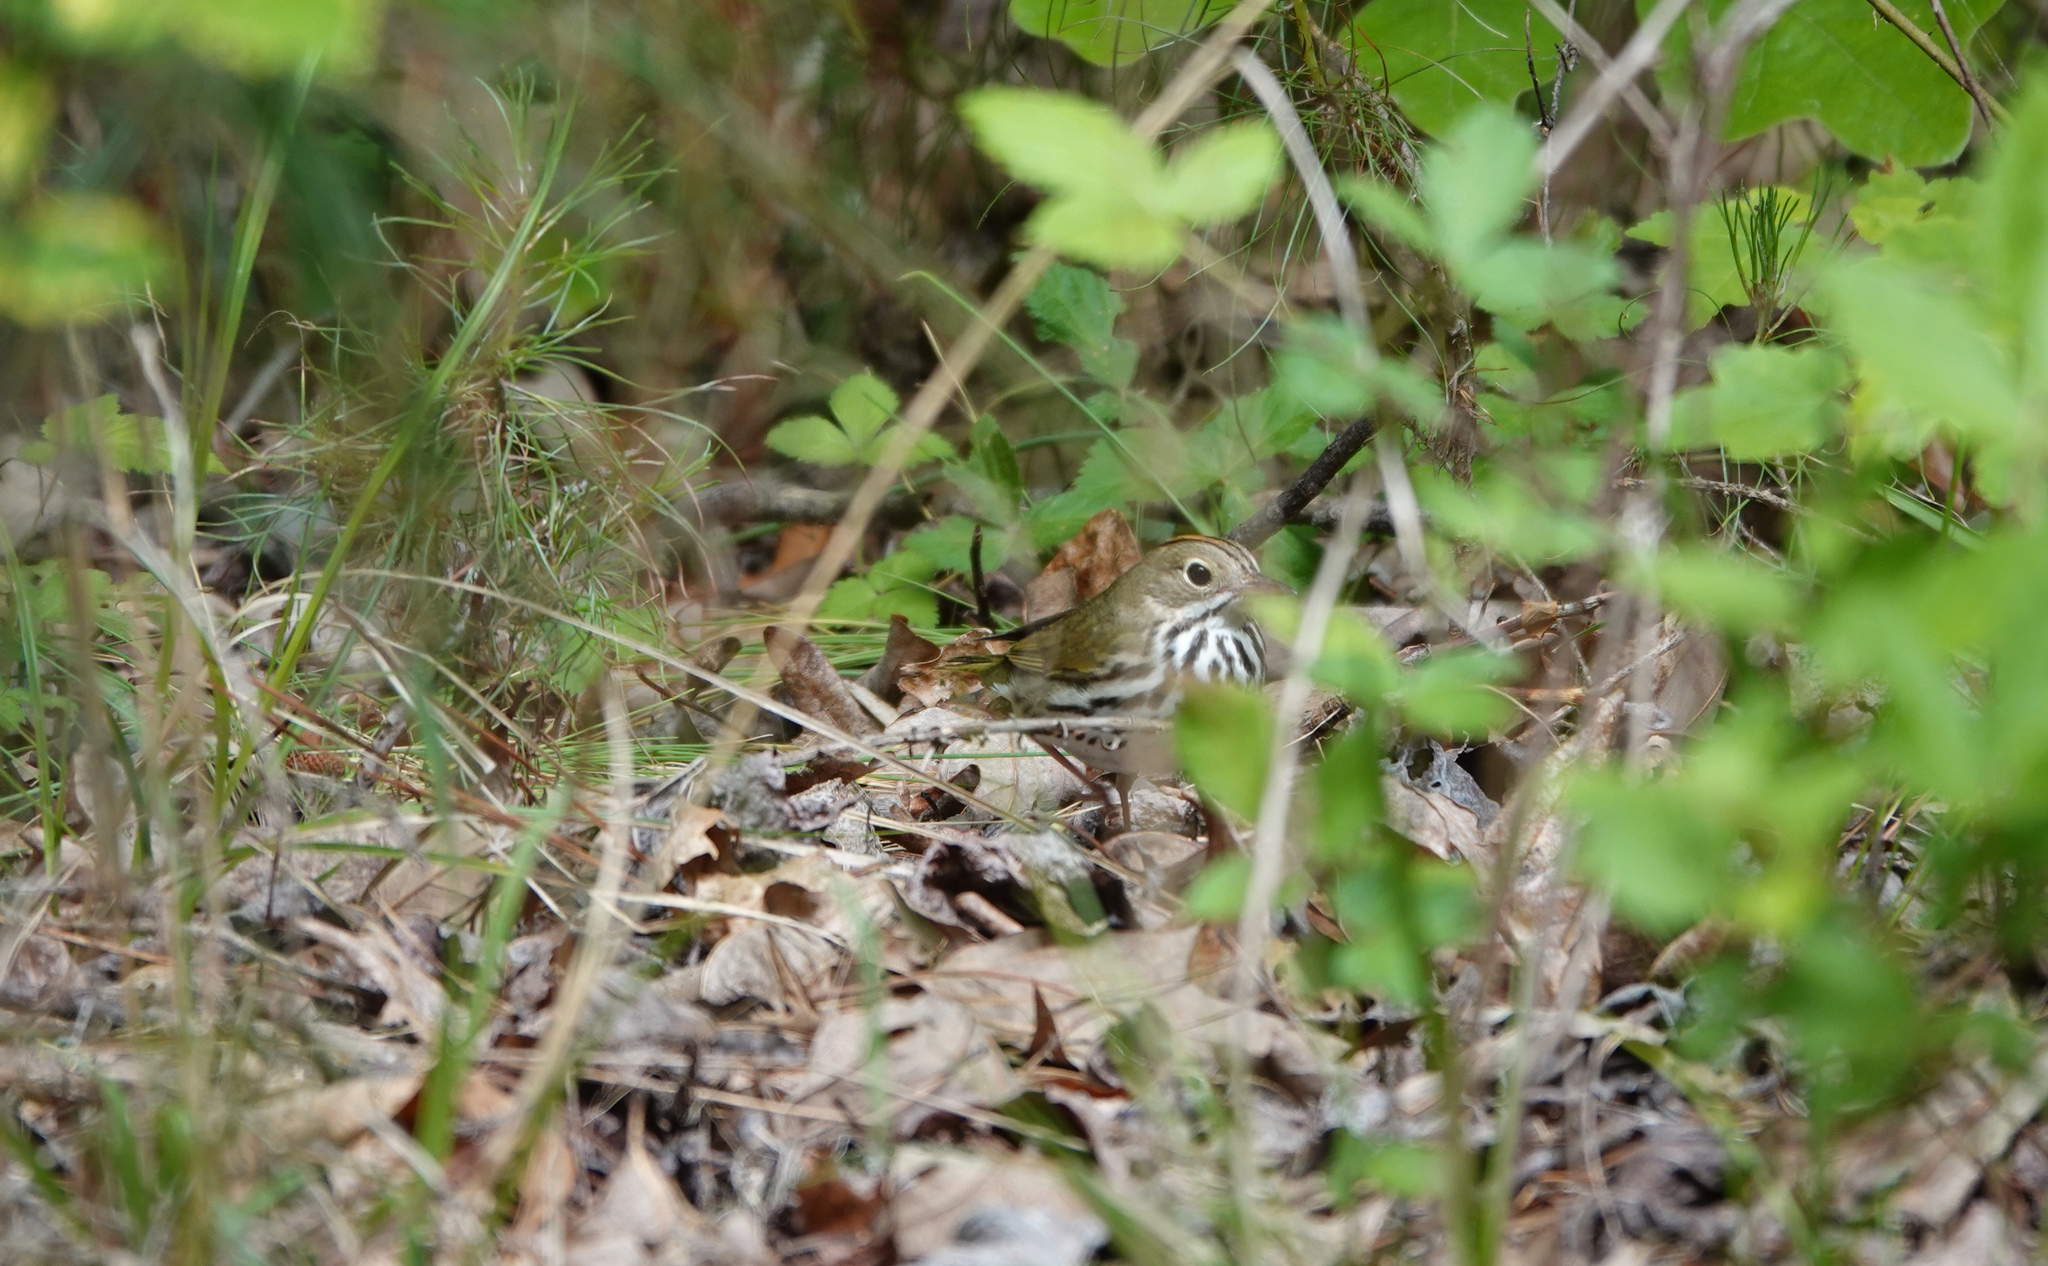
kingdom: Animalia
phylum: Chordata
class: Aves
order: Passeriformes
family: Parulidae
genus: Seiurus
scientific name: Seiurus aurocapilla
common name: Ovenbird
